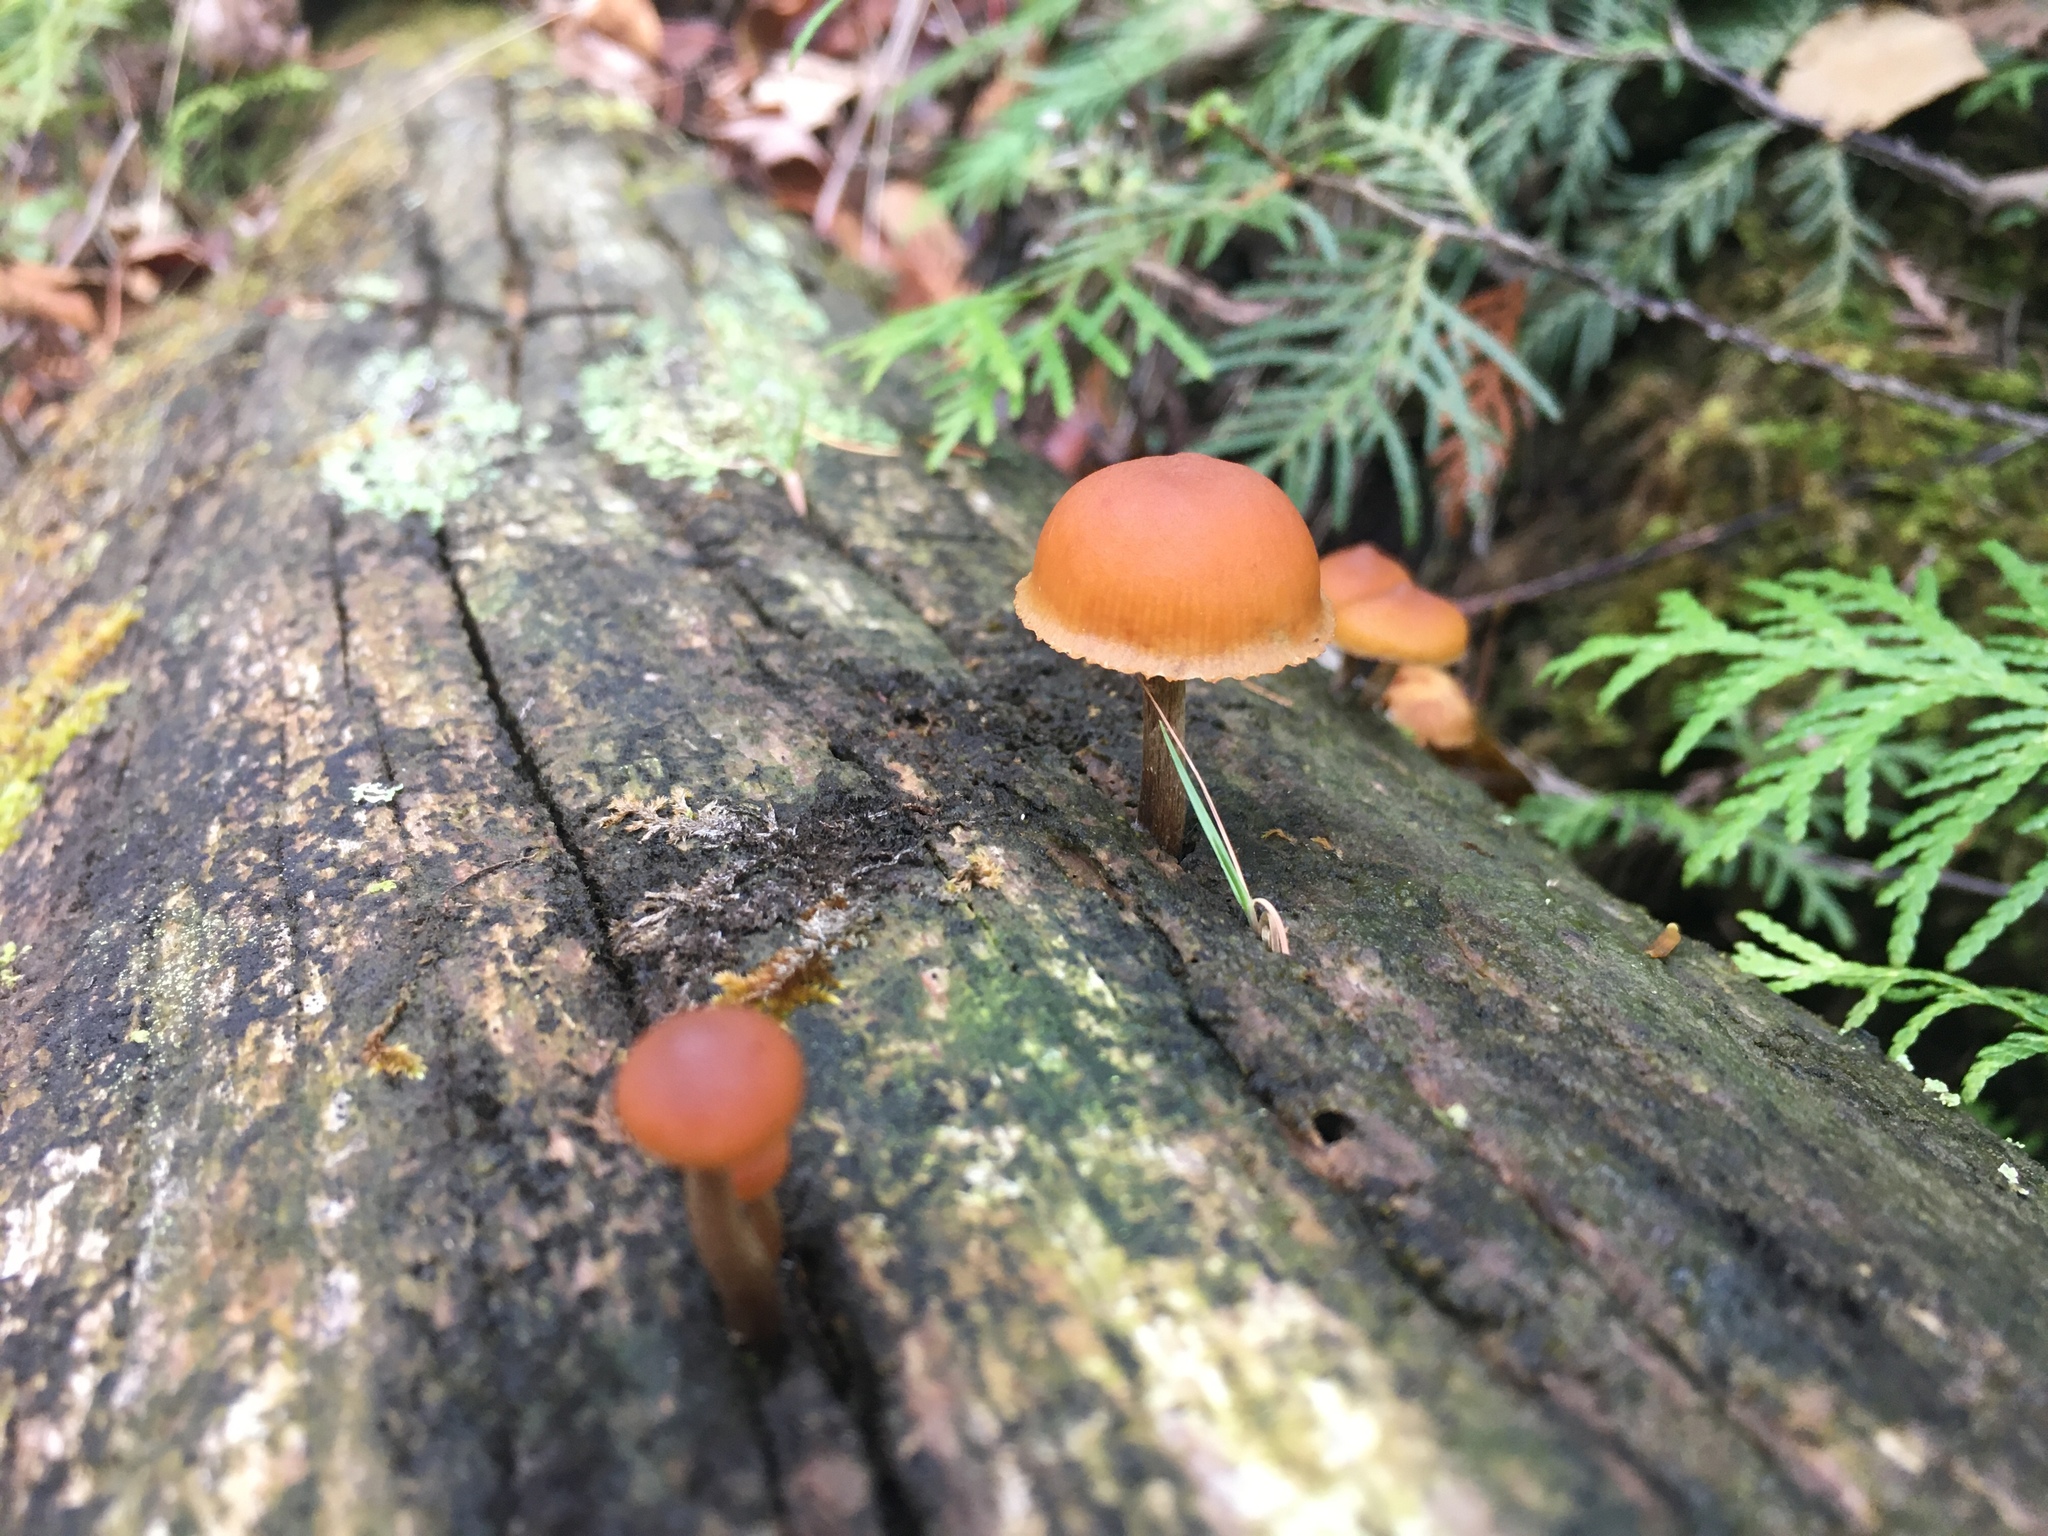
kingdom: Fungi
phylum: Basidiomycota
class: Agaricomycetes
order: Agaricales
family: Hymenogastraceae
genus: Galerina
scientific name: Galerina marginata
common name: Funeral bell
